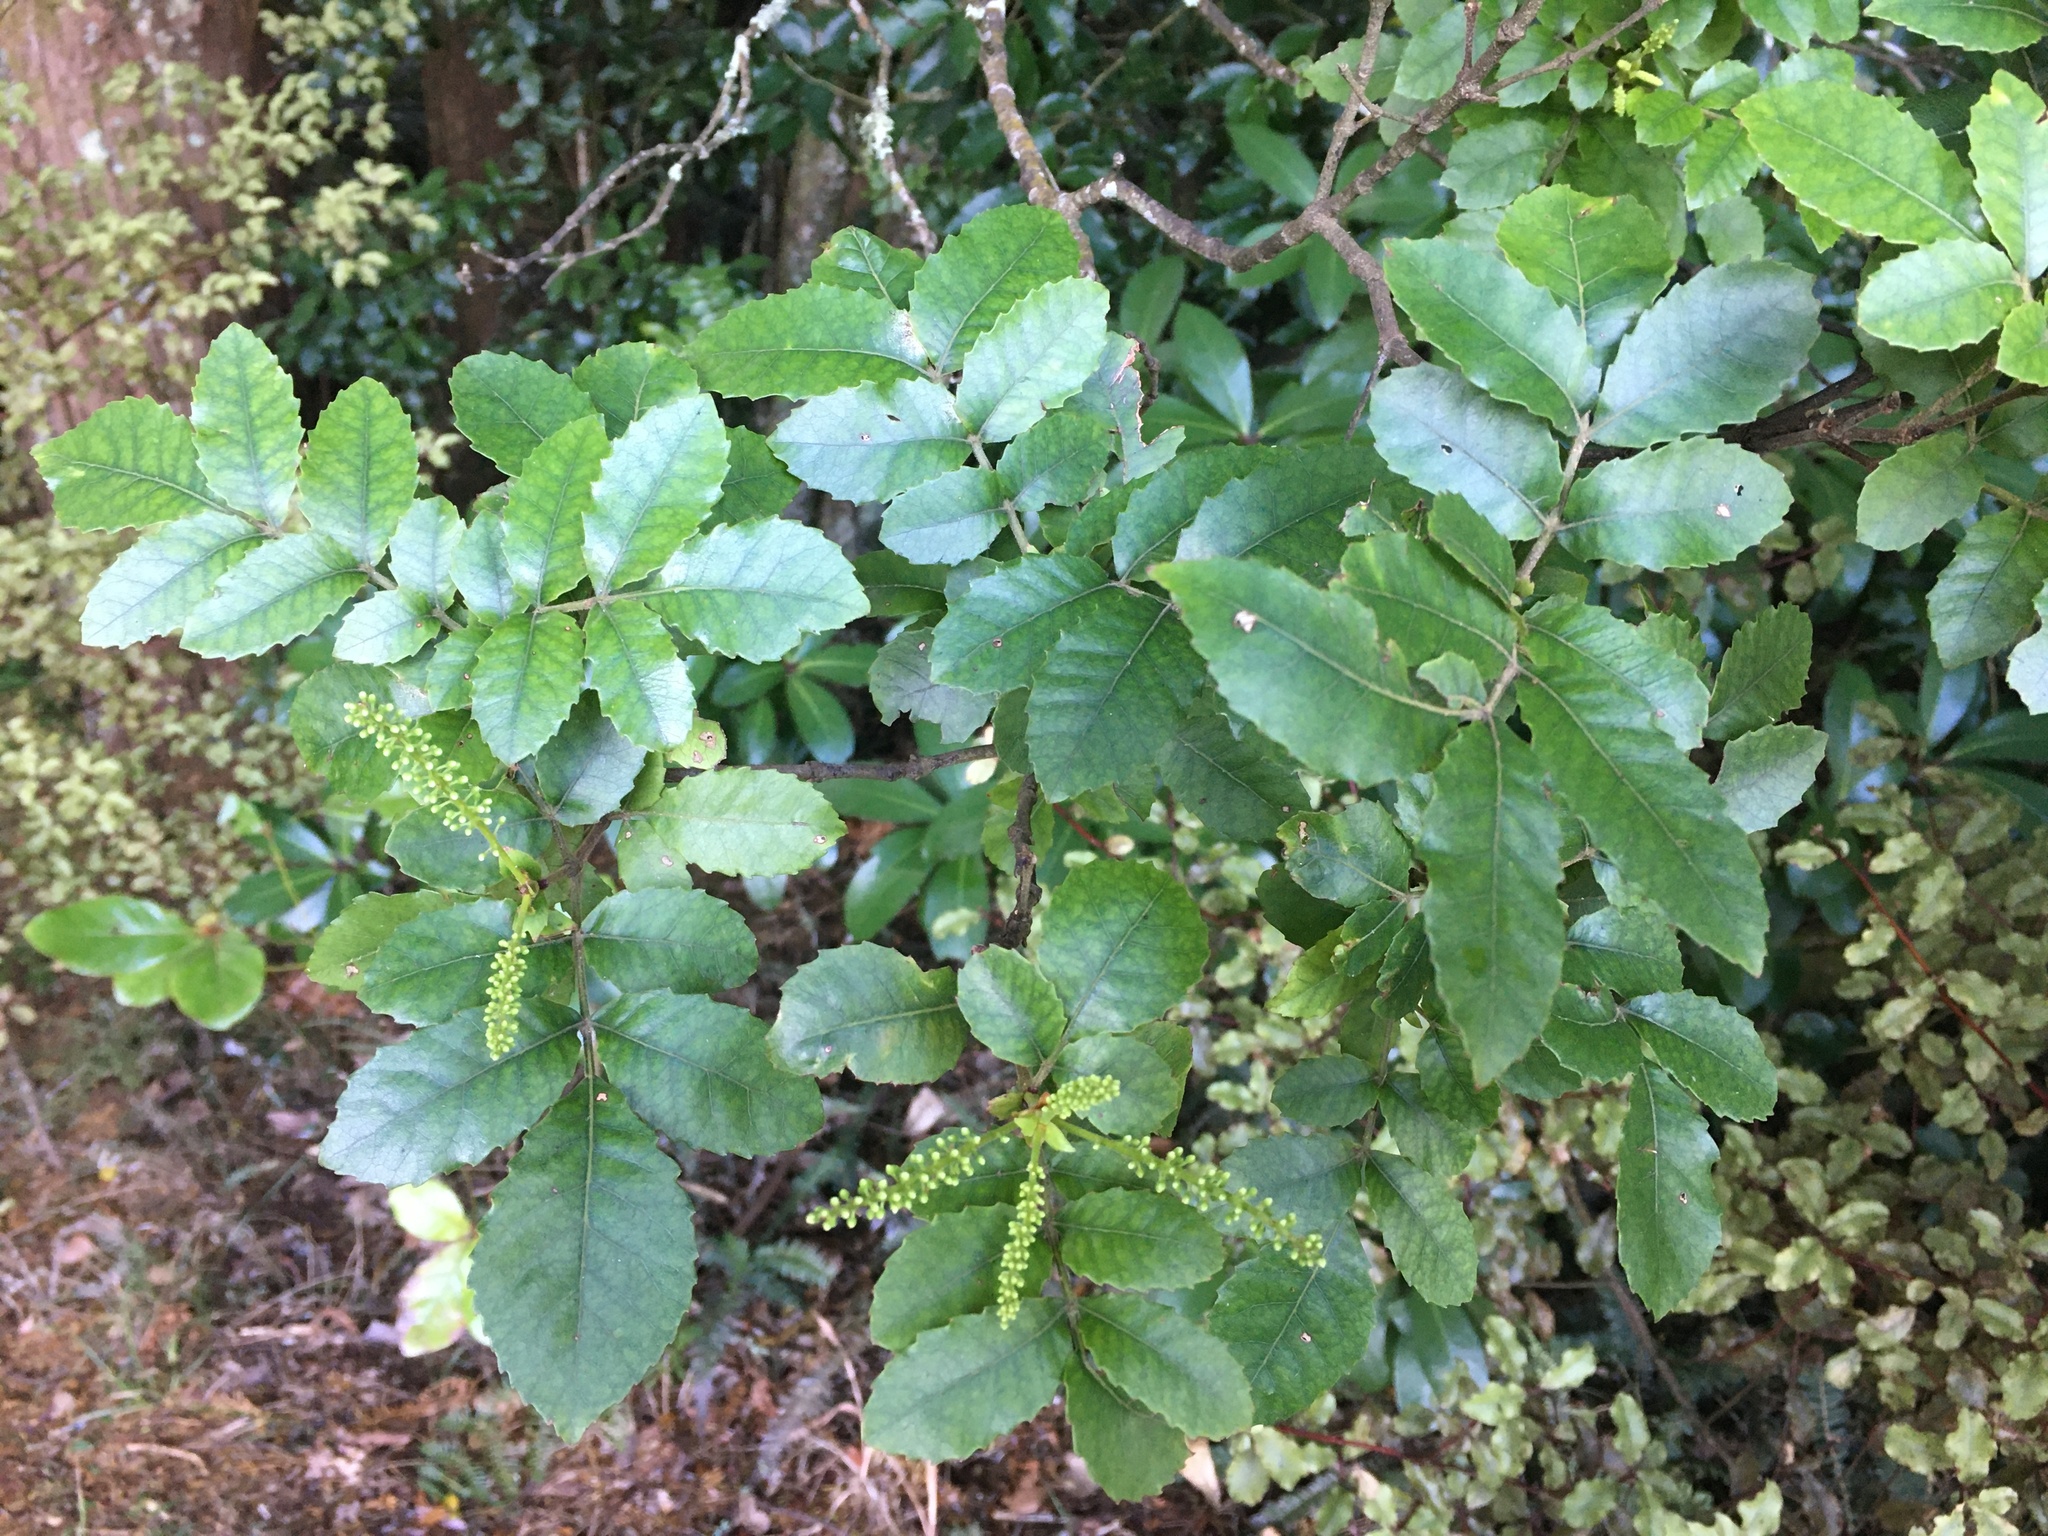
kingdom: Plantae
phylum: Tracheophyta
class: Magnoliopsida
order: Oxalidales
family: Cunoniaceae
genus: Pterophylla
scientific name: Pterophylla sylvicola
